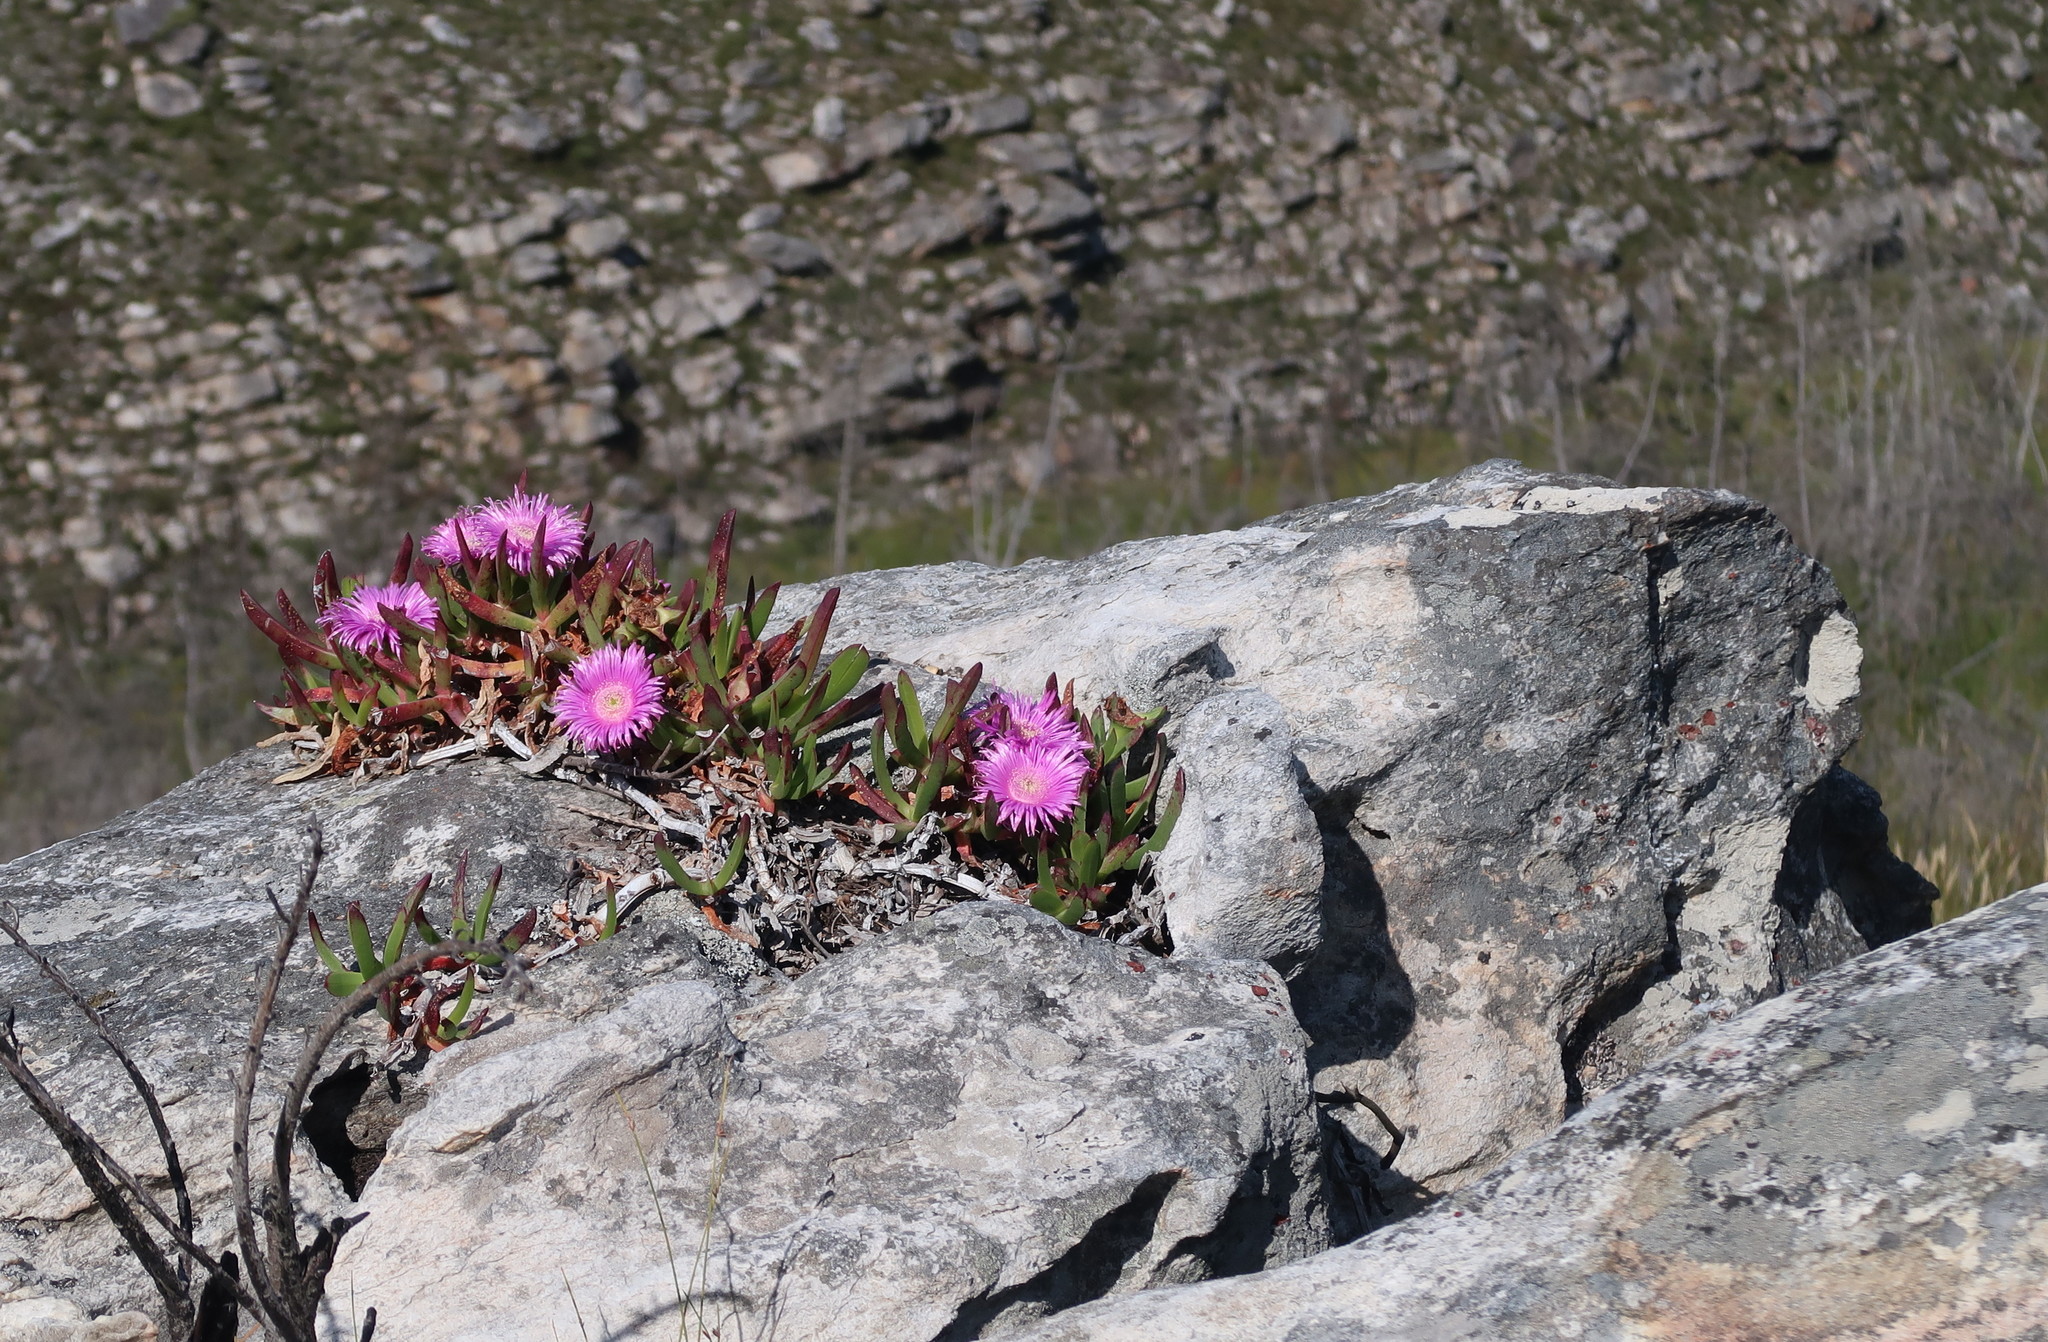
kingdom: Plantae
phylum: Tracheophyta
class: Magnoliopsida
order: Caryophyllales
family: Aizoaceae
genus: Carpobrotus
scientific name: Carpobrotus mellei
